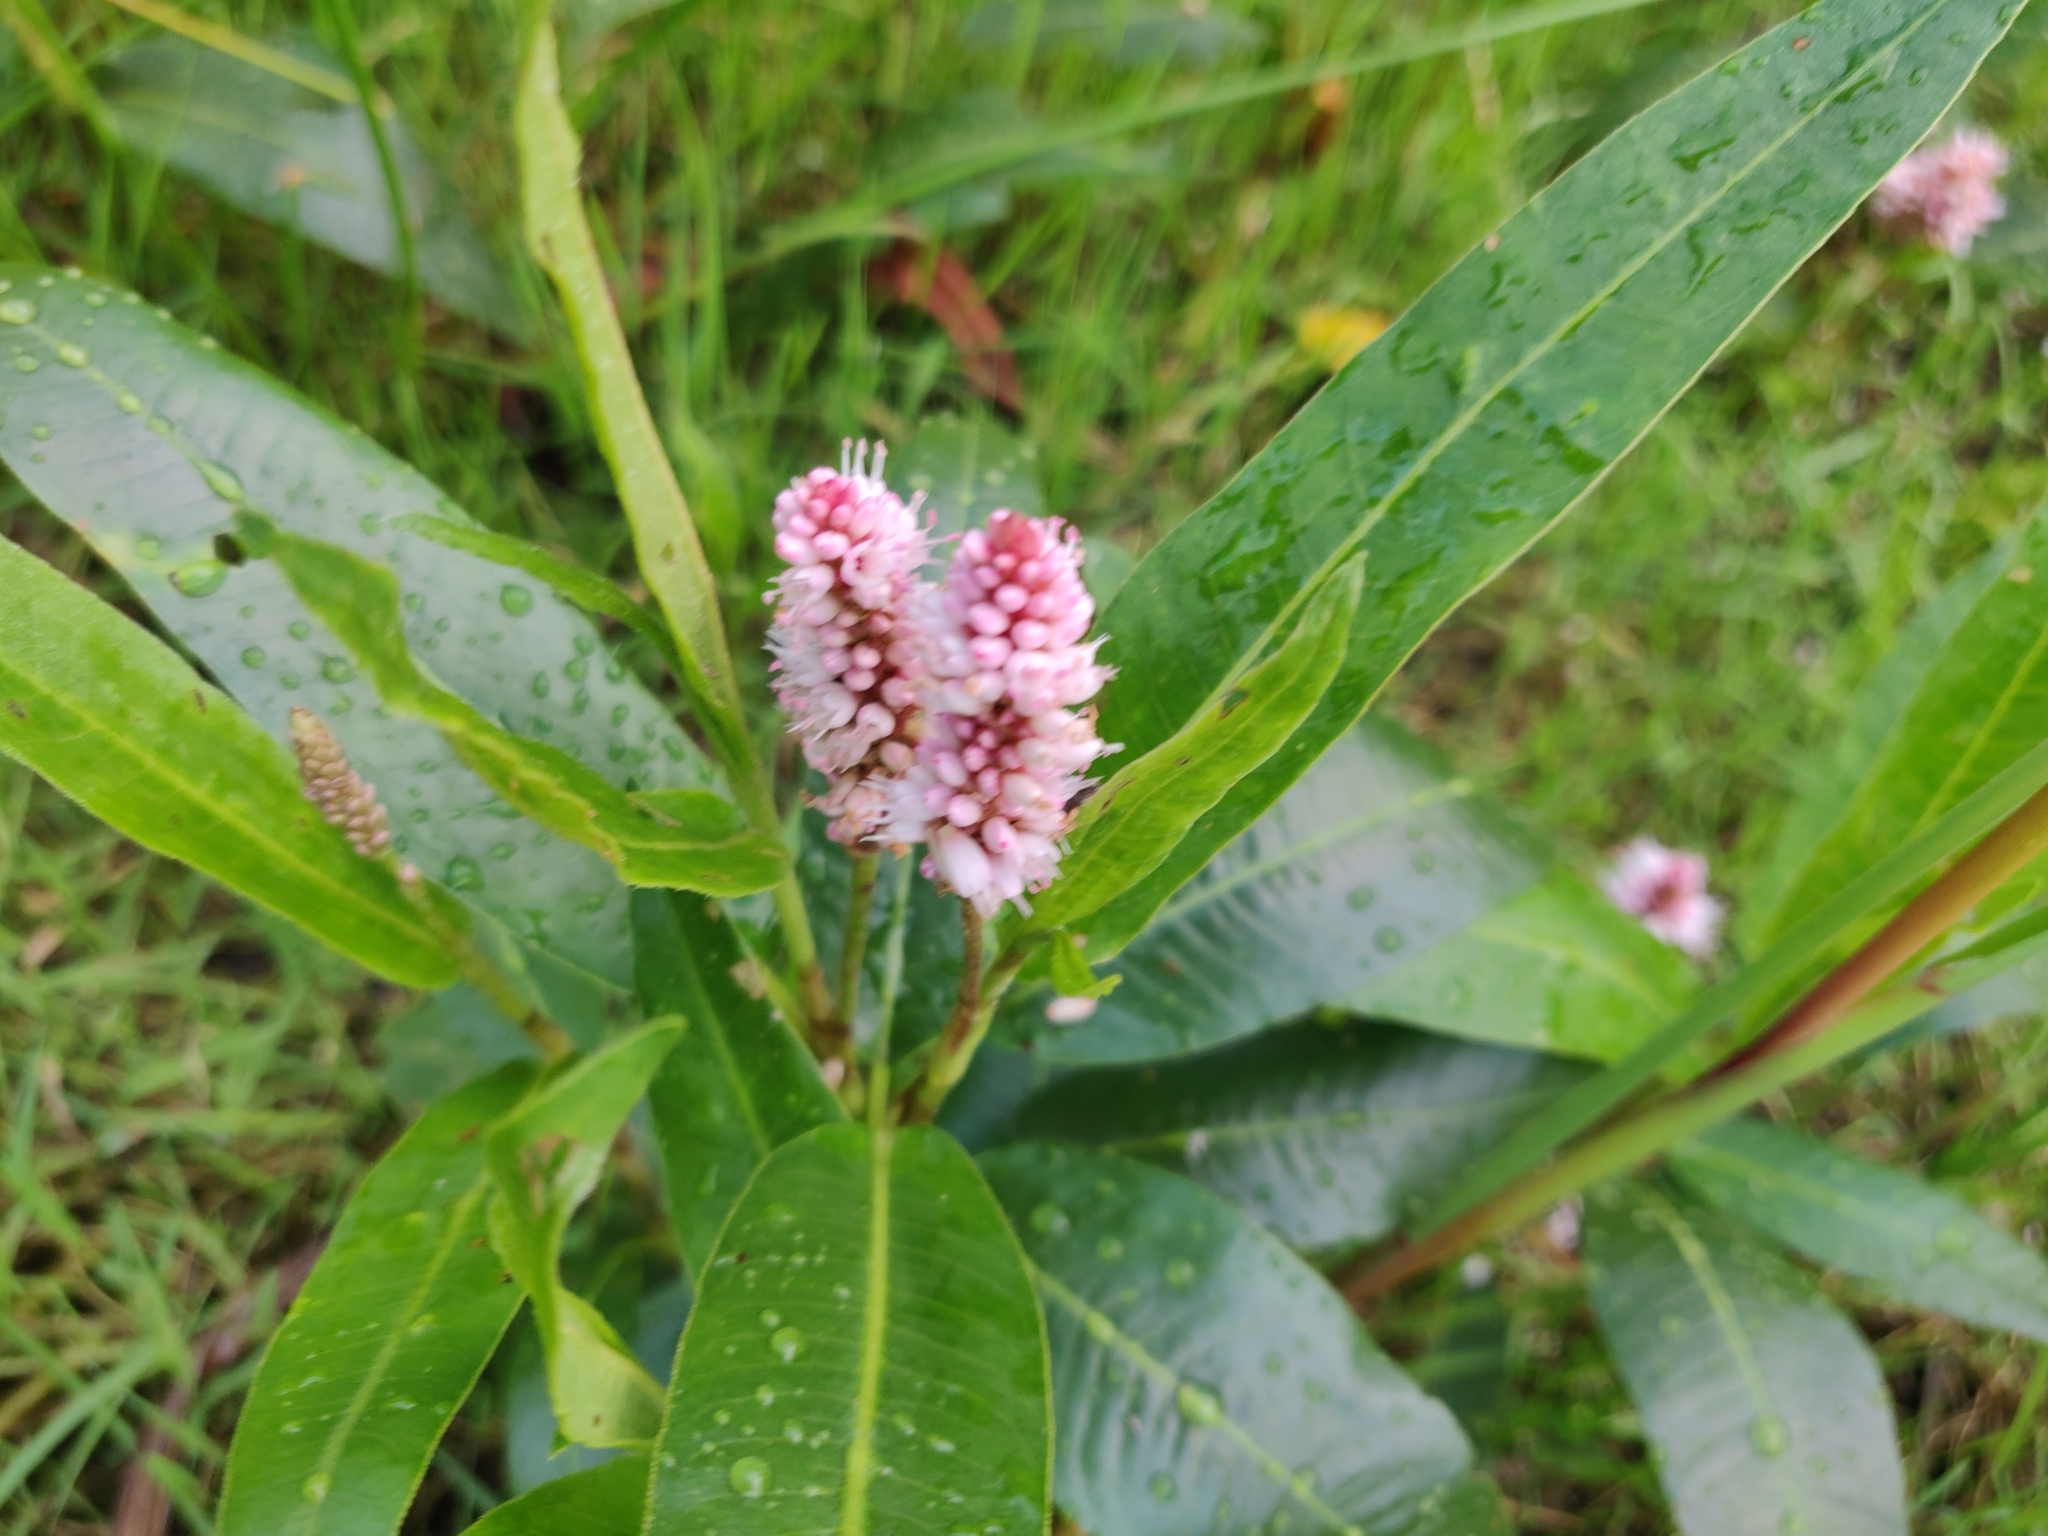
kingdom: Plantae
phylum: Tracheophyta
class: Magnoliopsida
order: Caryophyllales
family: Polygonaceae
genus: Persicaria
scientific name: Persicaria amphibia
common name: Amphibious bistort
